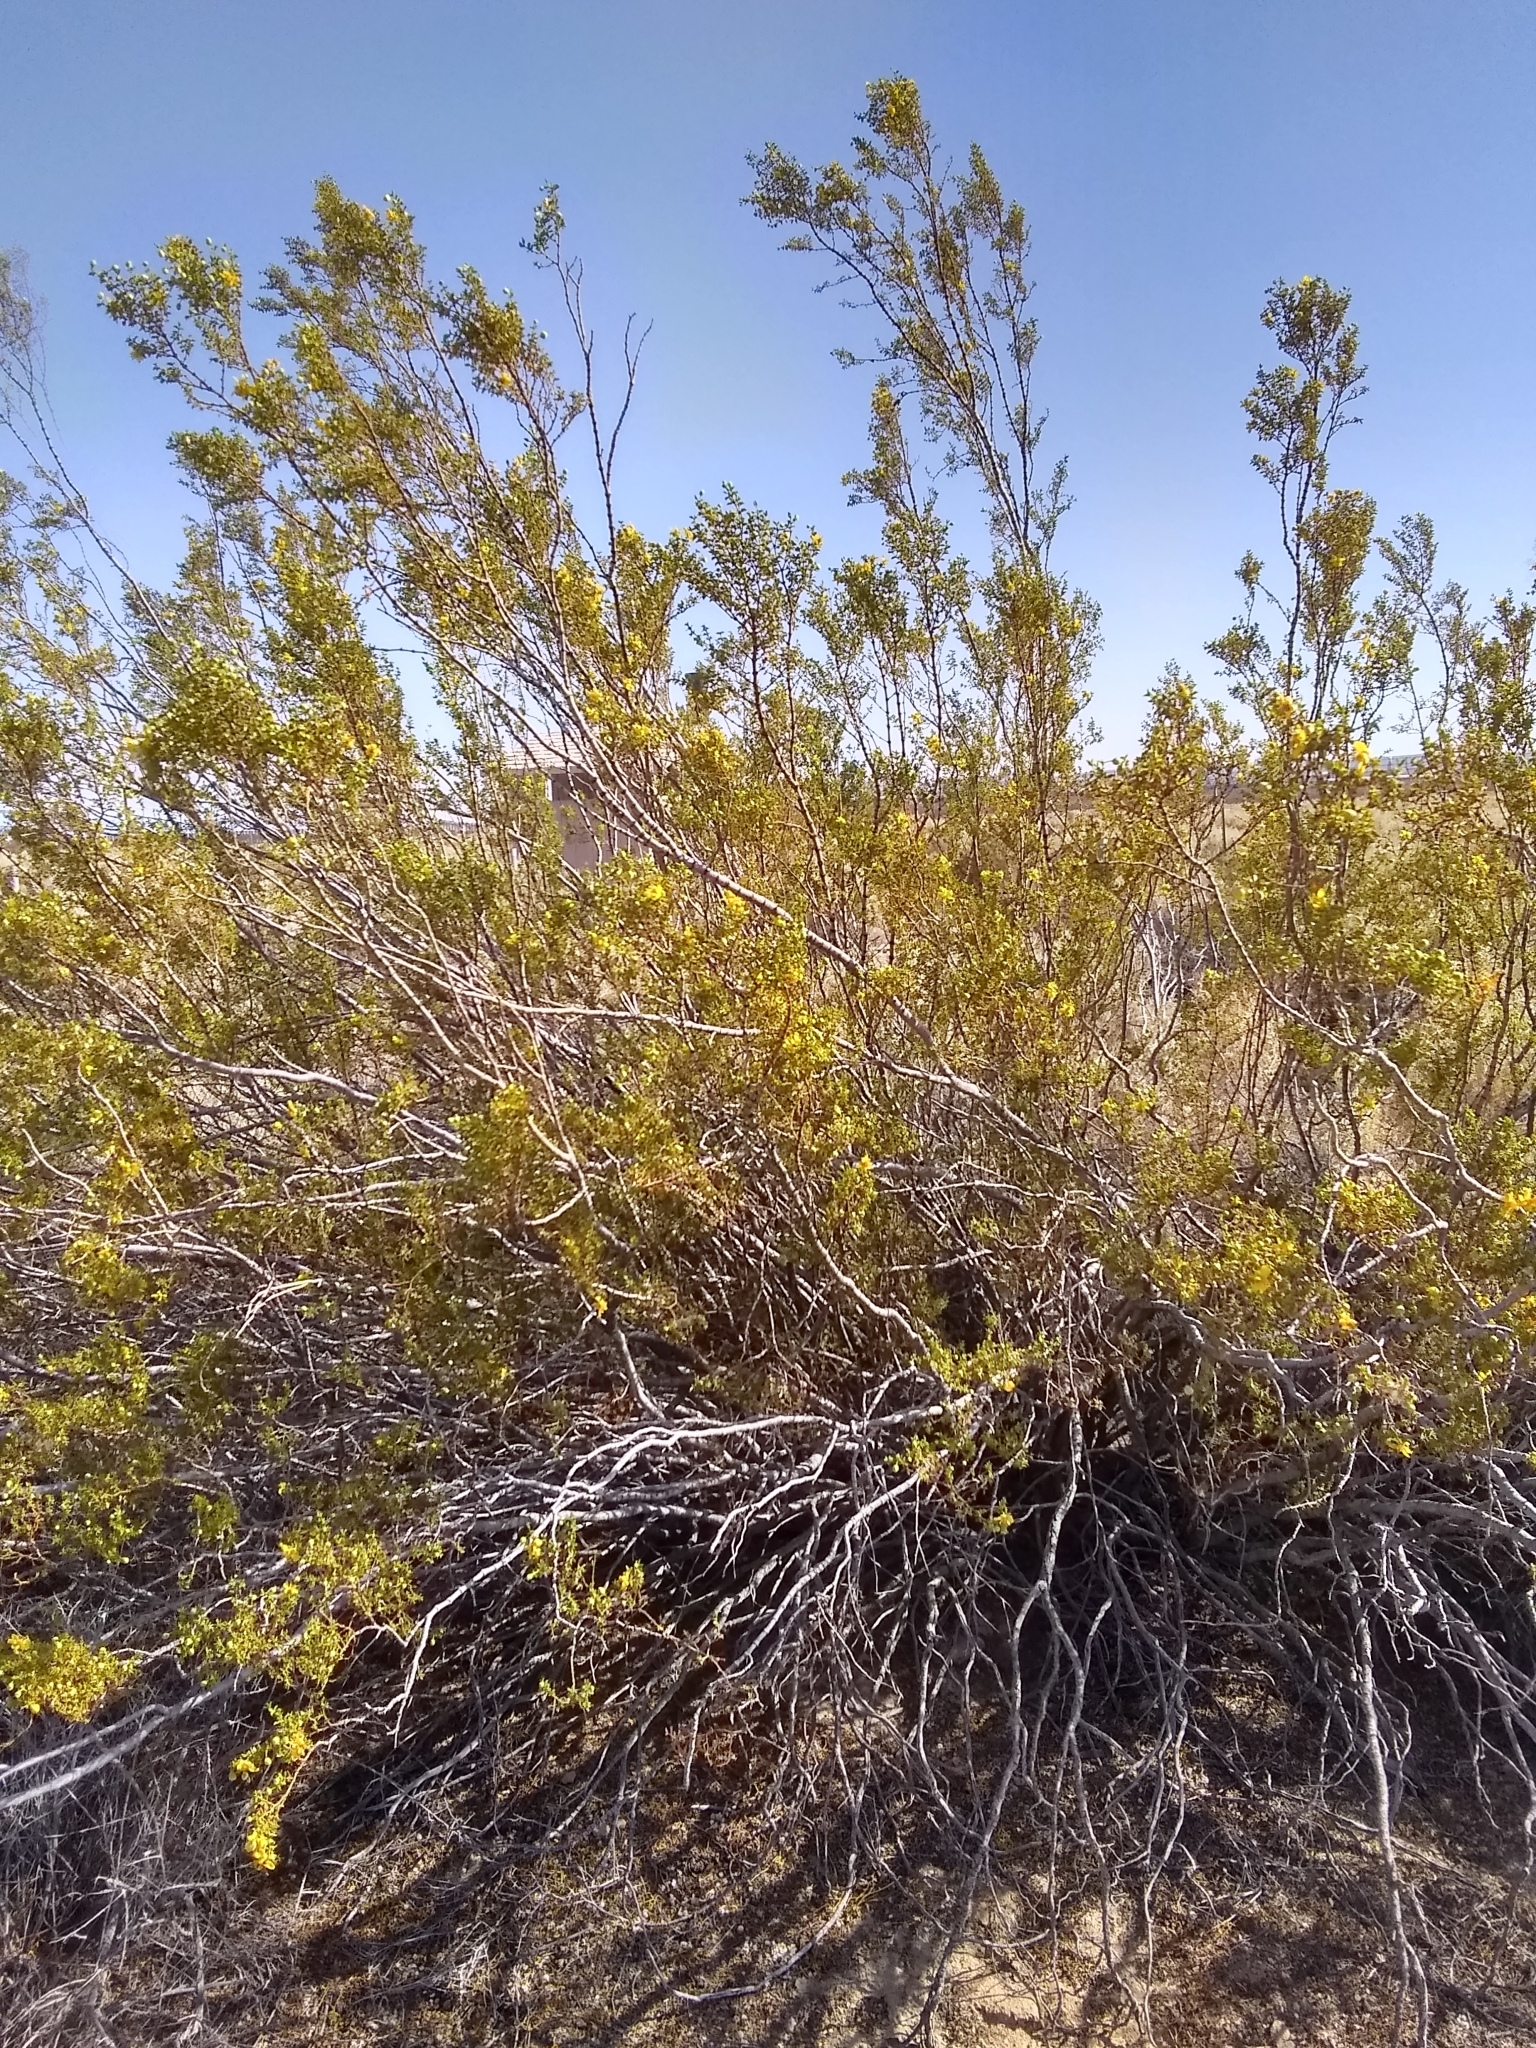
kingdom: Plantae
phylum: Tracheophyta
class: Magnoliopsida
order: Zygophyllales
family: Zygophyllaceae
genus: Larrea
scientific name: Larrea tridentata
